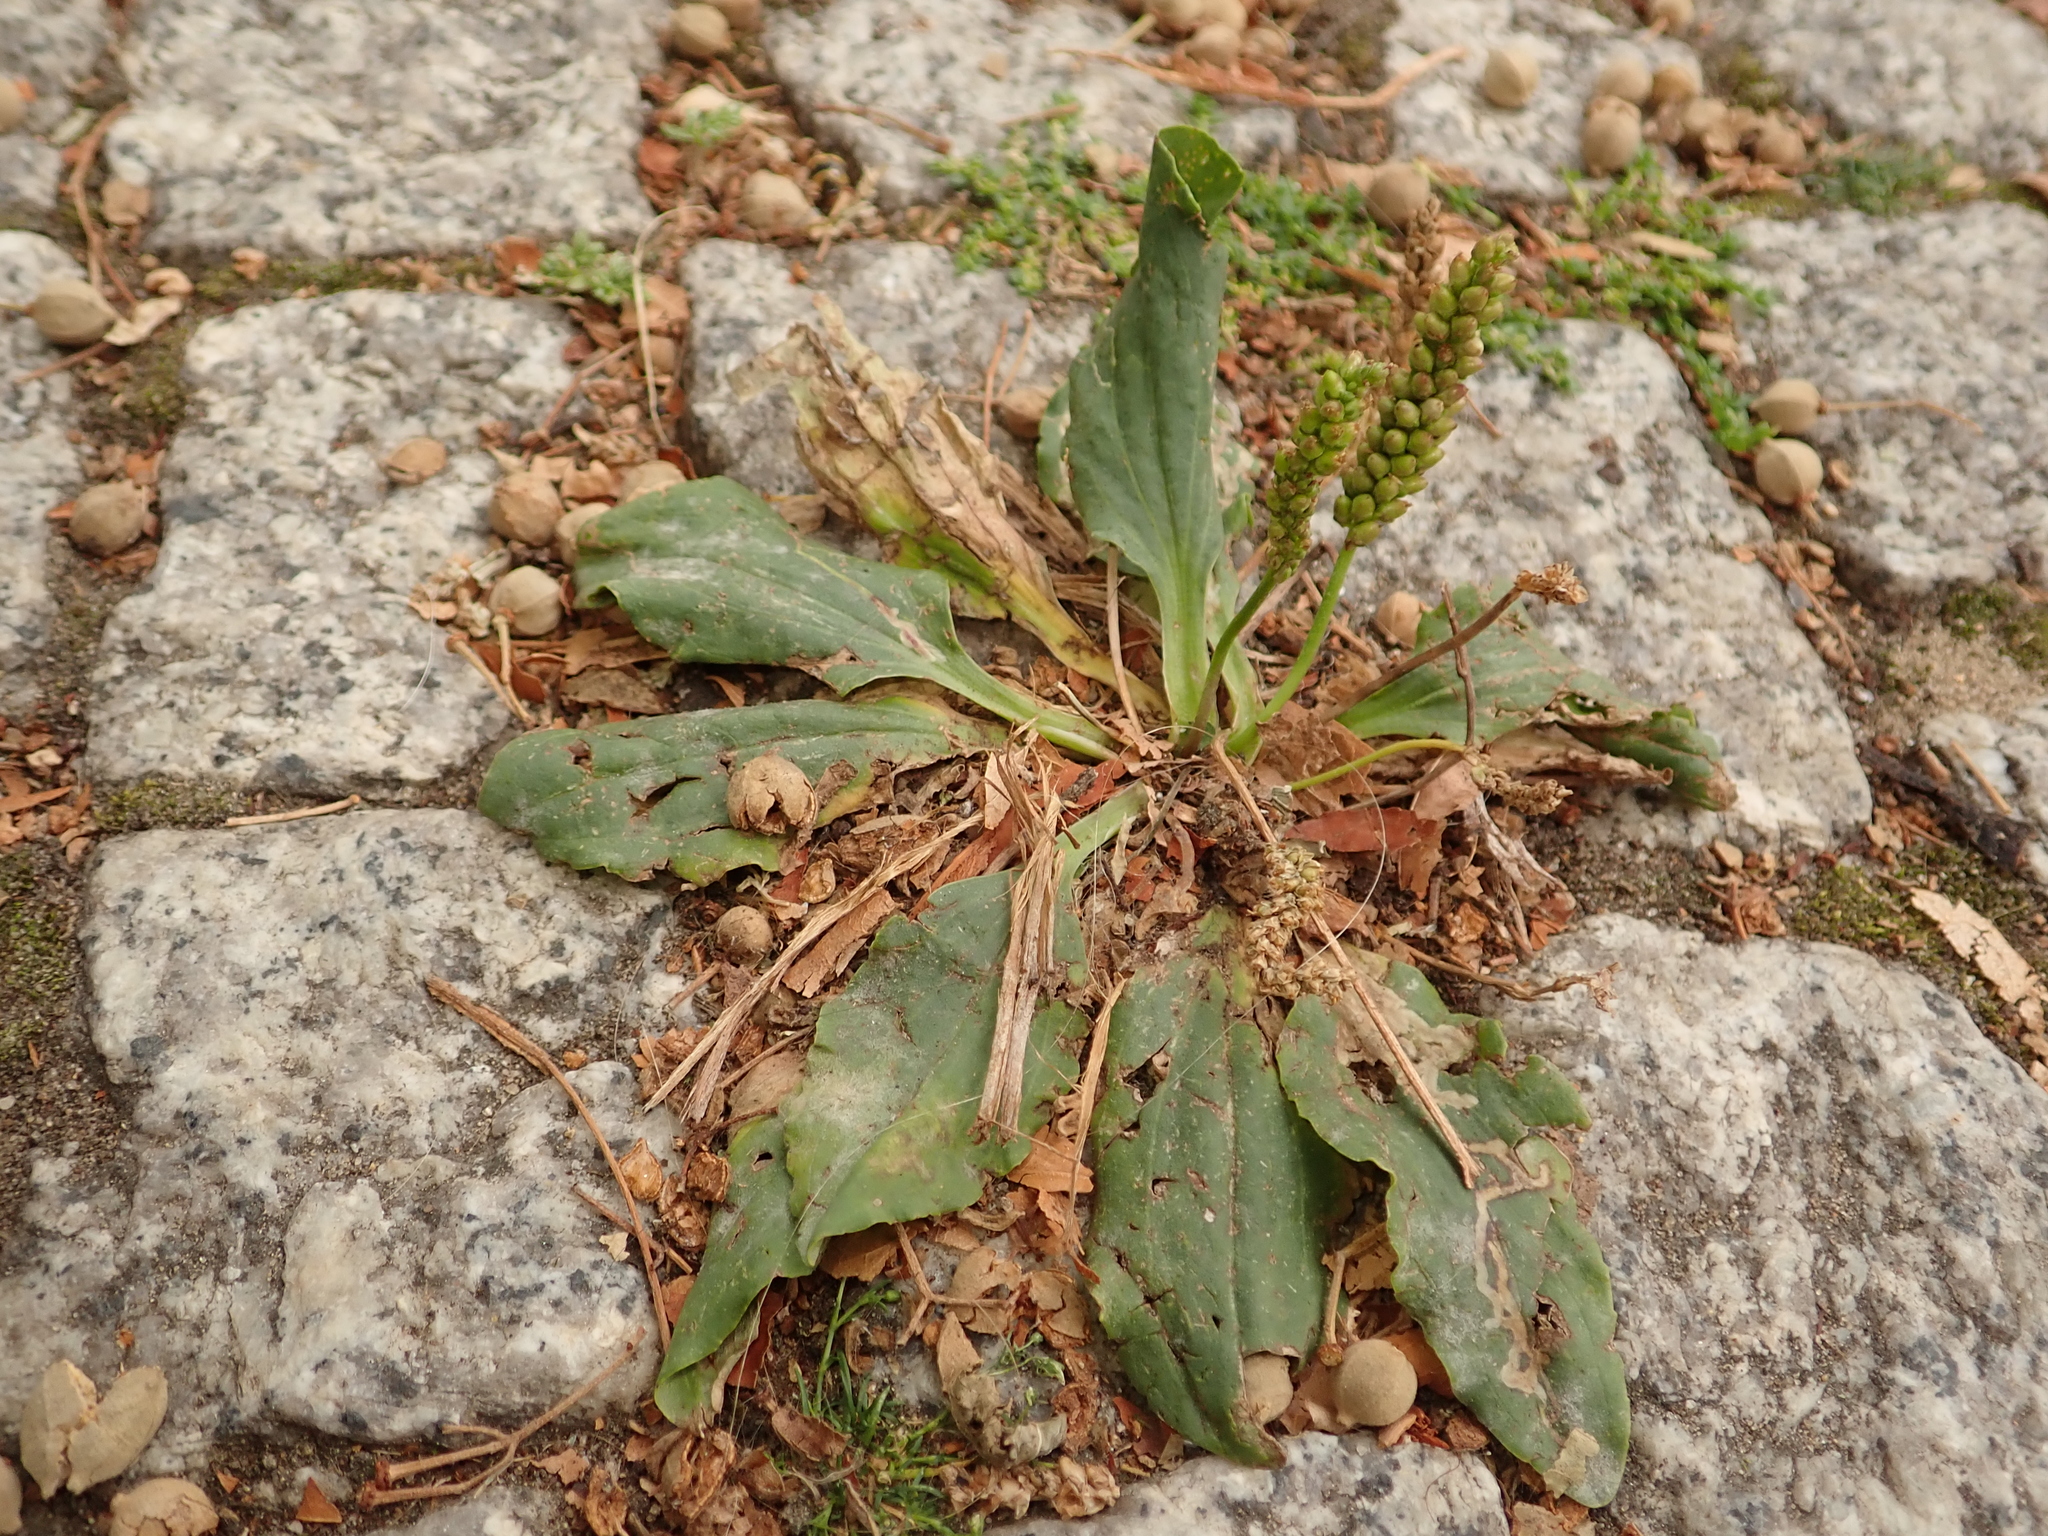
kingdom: Plantae
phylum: Tracheophyta
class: Magnoliopsida
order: Lamiales
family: Plantaginaceae
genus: Plantago
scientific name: Plantago major
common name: Common plantain
